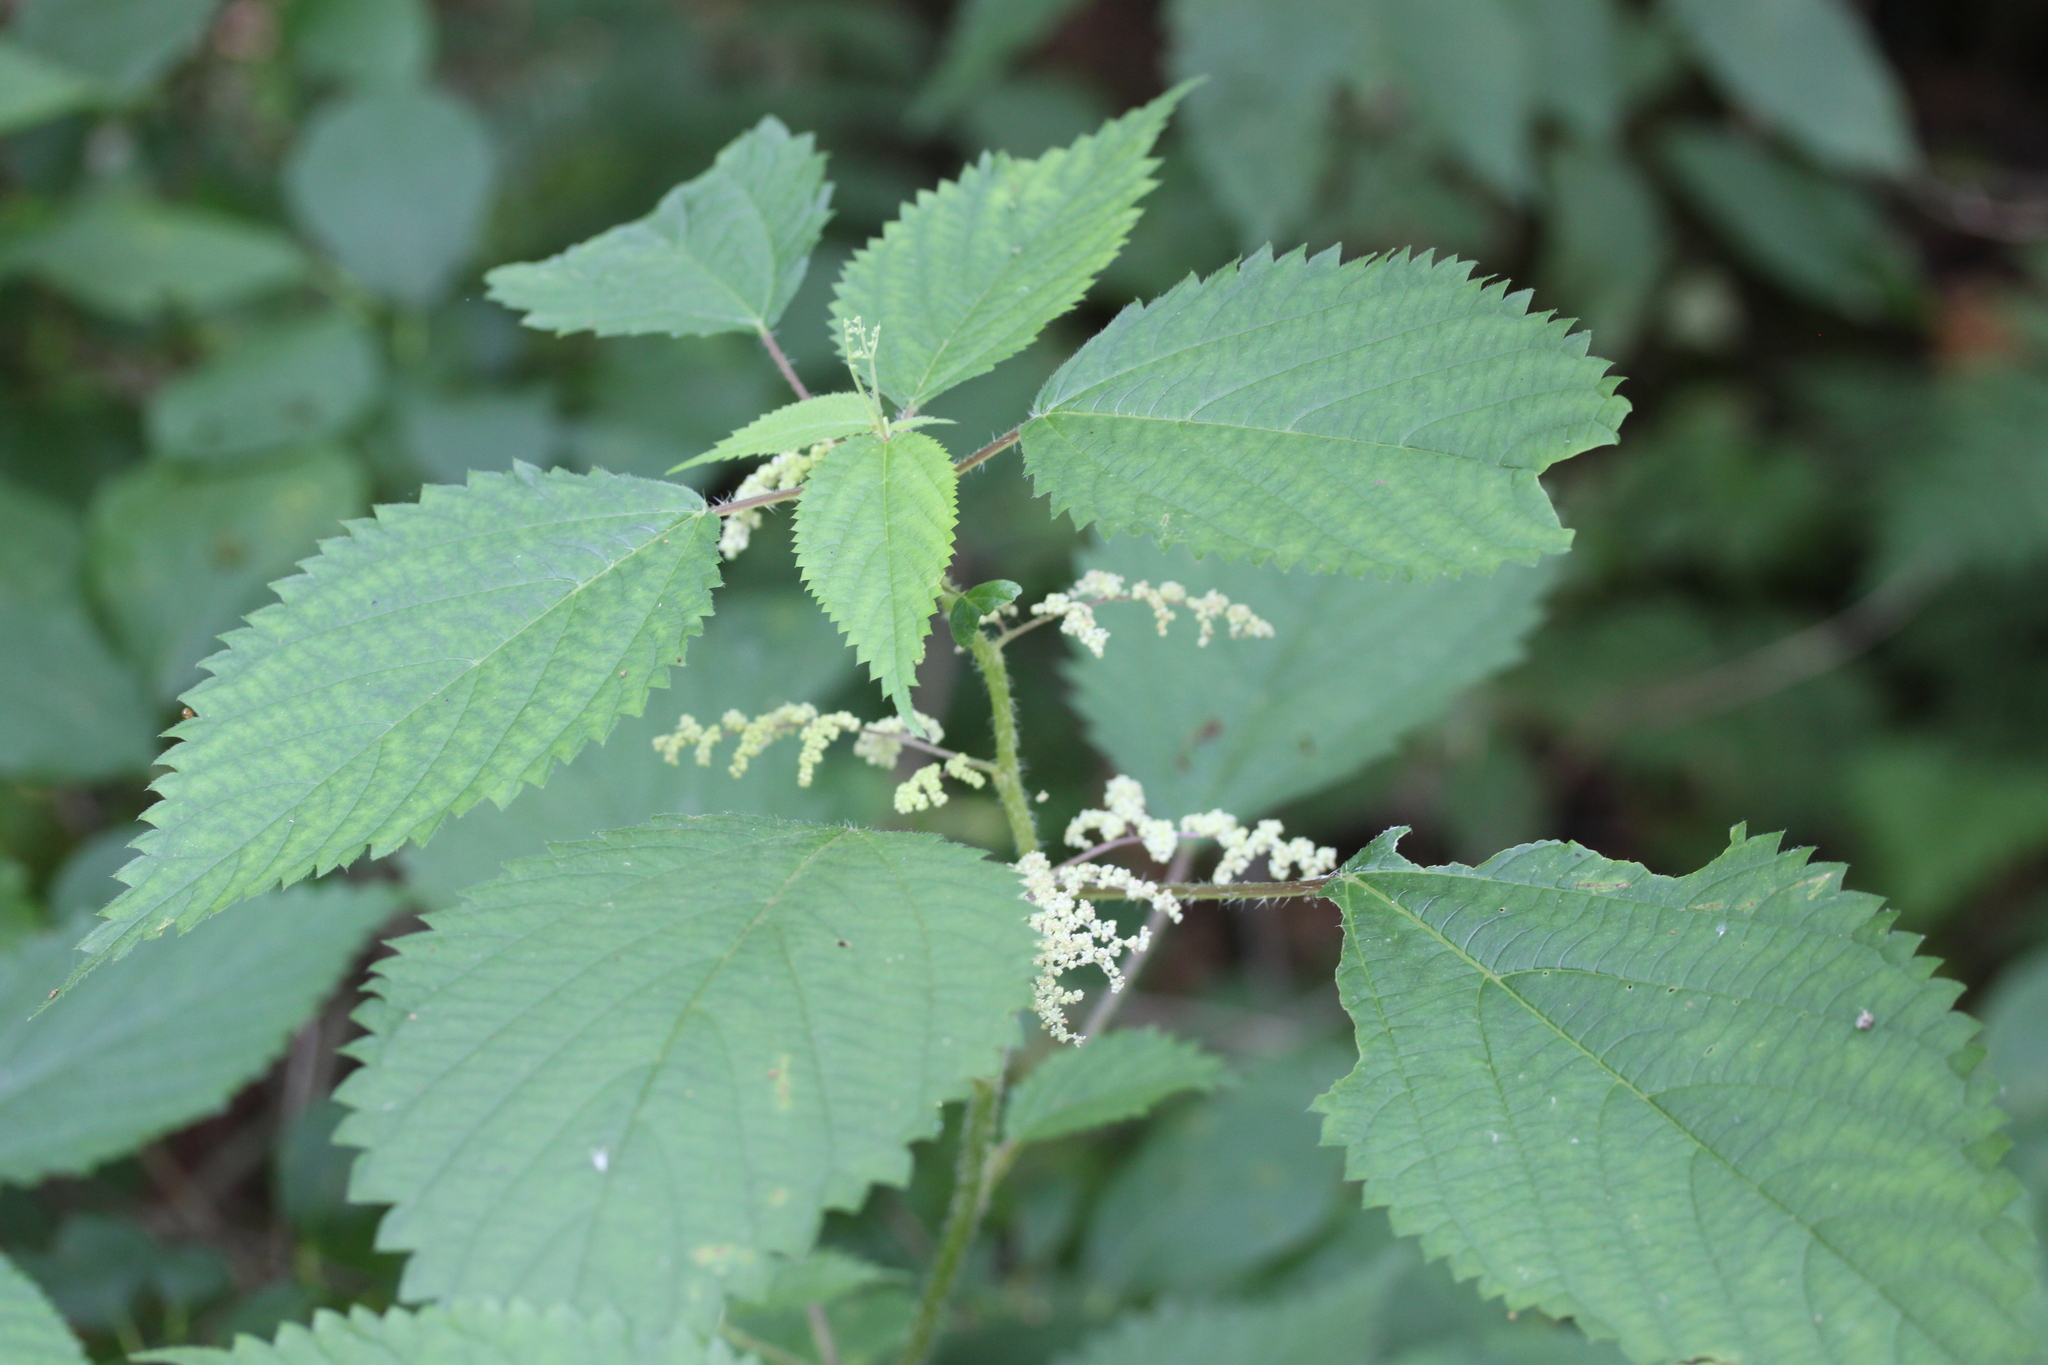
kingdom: Plantae
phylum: Tracheophyta
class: Magnoliopsida
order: Rosales
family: Urticaceae
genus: Laportea
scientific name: Laportea canadensis
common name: Canada nettle
